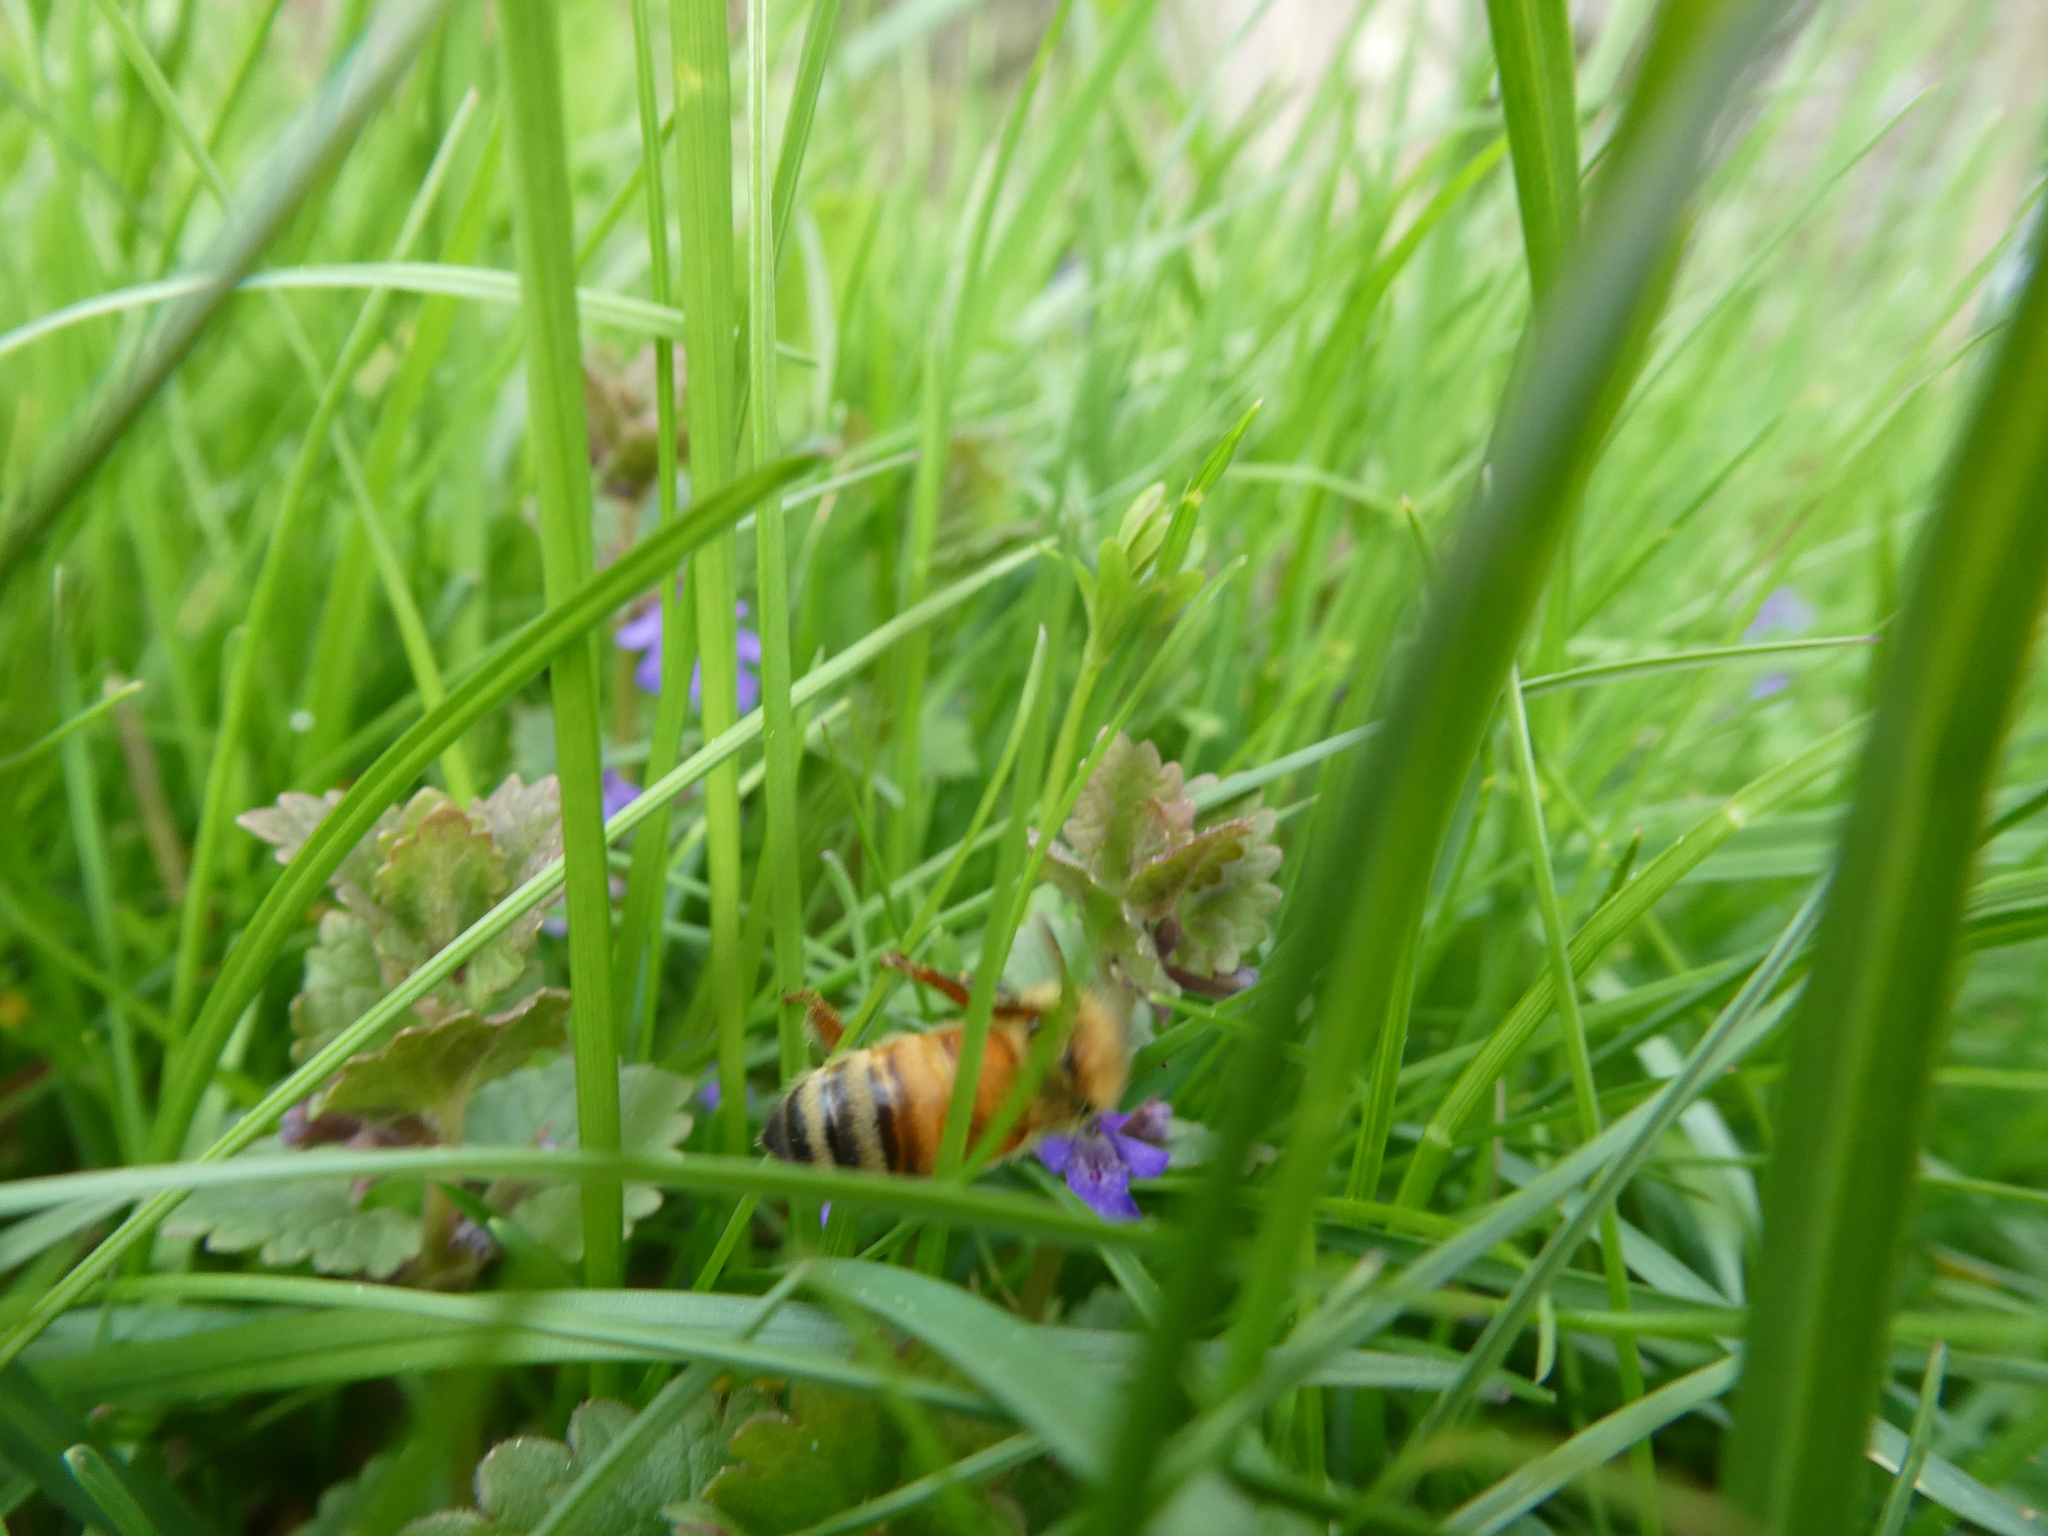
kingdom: Animalia
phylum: Arthropoda
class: Insecta
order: Hymenoptera
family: Apidae
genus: Apis
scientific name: Apis mellifera
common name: Honey bee
